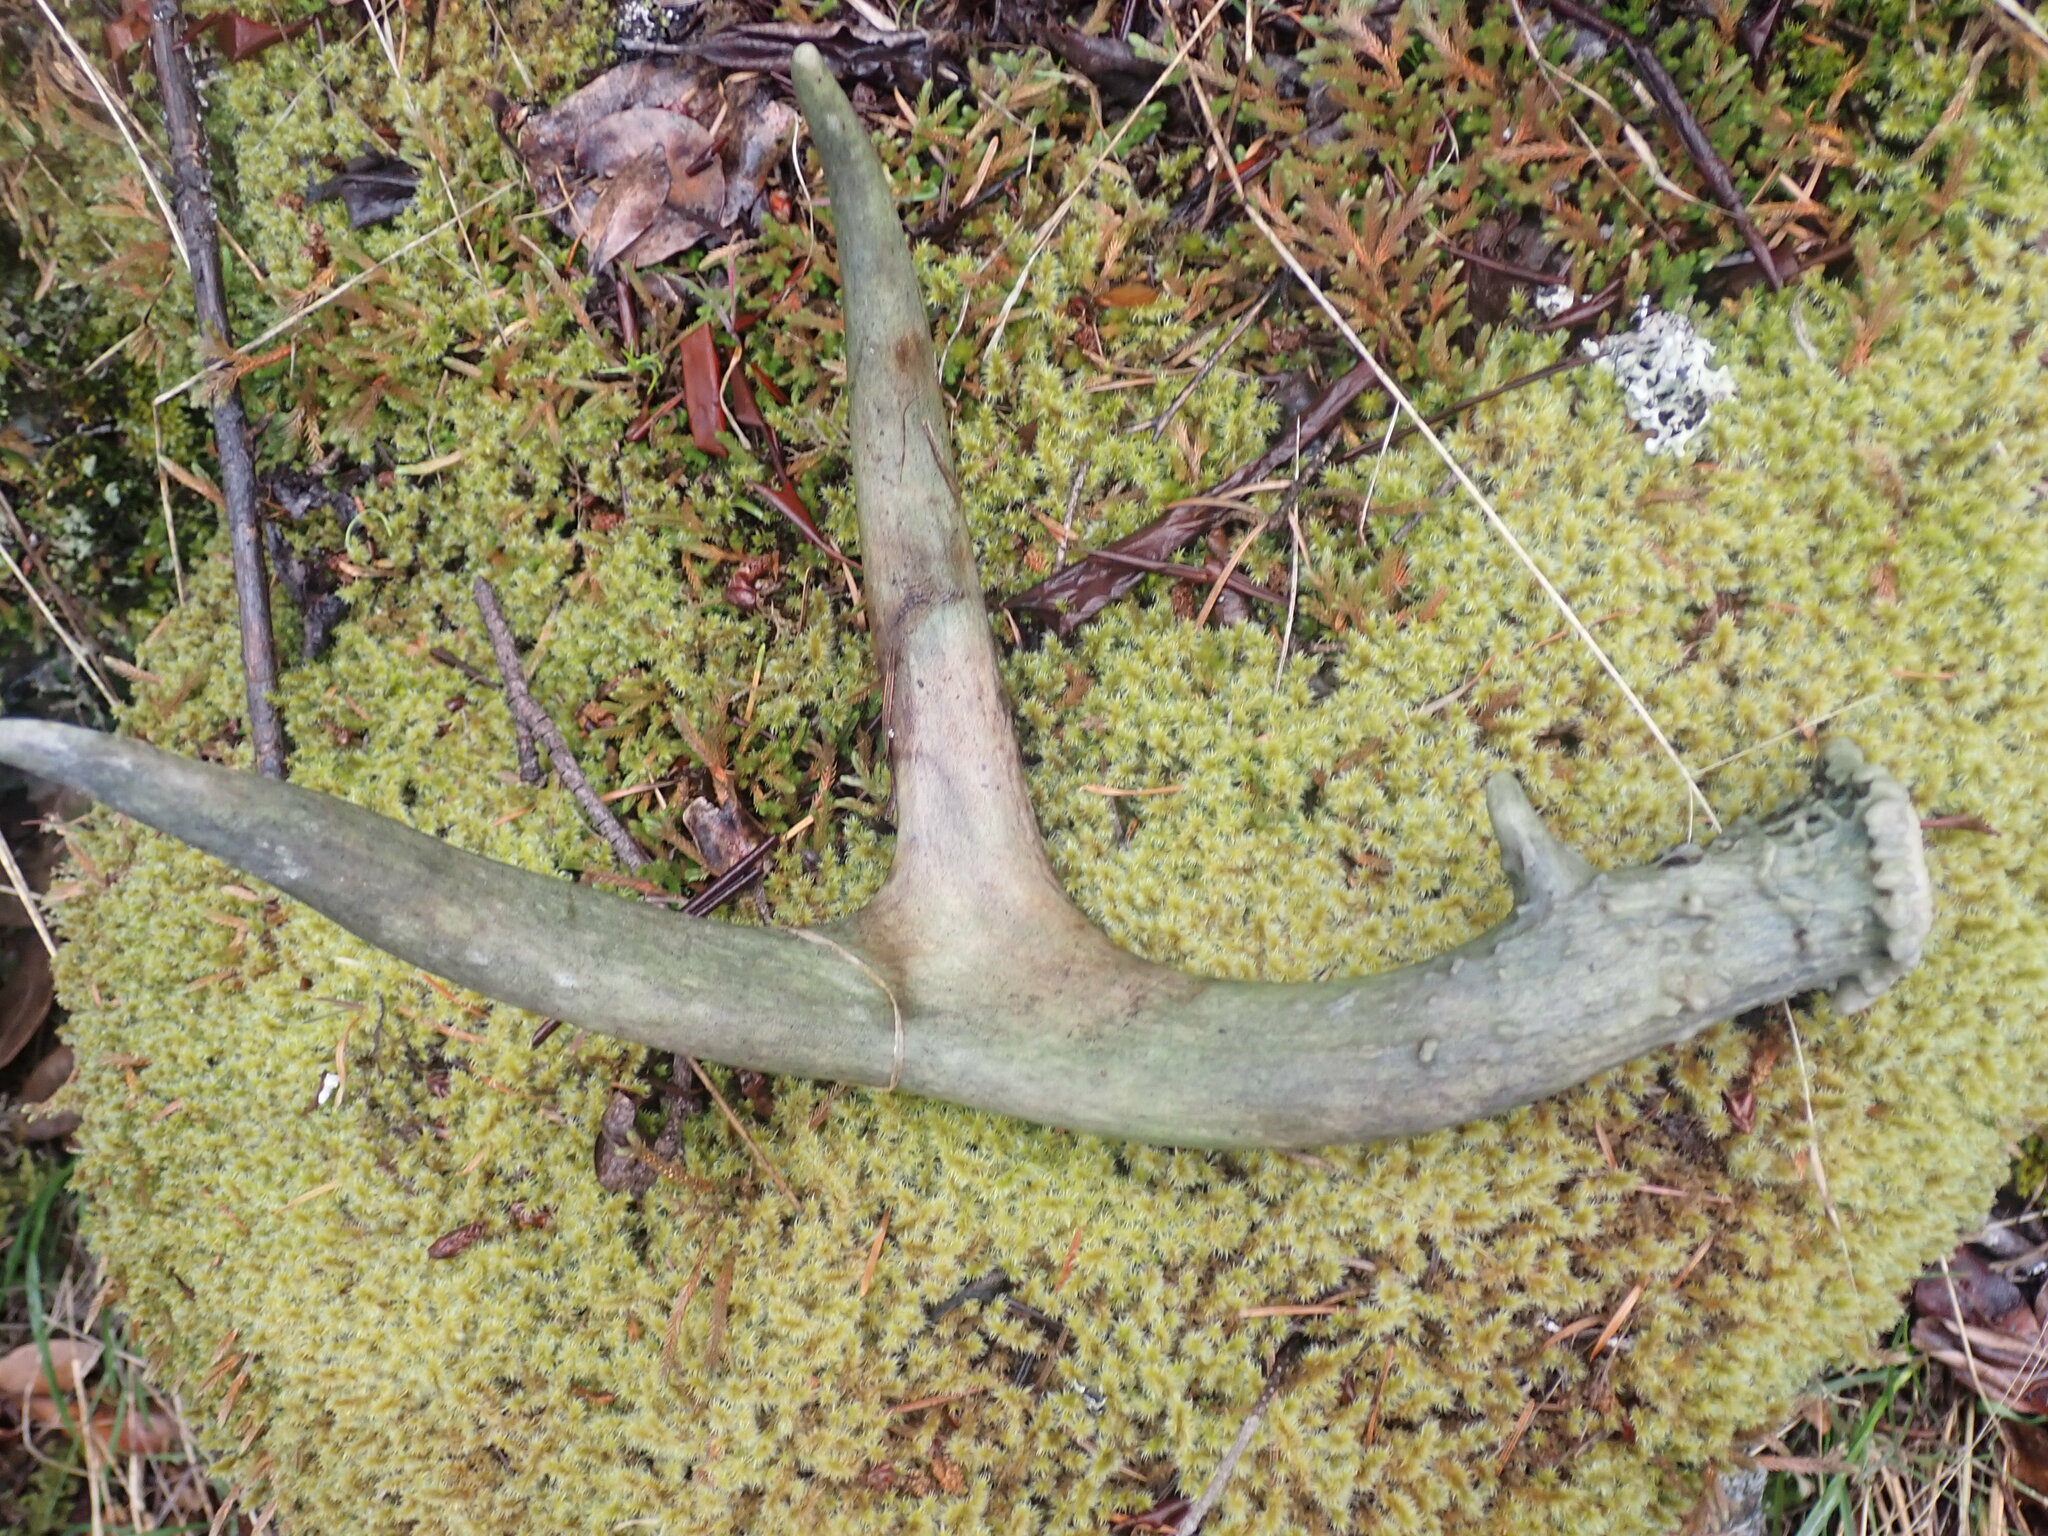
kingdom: Animalia
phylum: Chordata
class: Mammalia
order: Artiodactyla
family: Cervidae
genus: Odocoileus
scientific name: Odocoileus hemionus
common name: Mule deer
